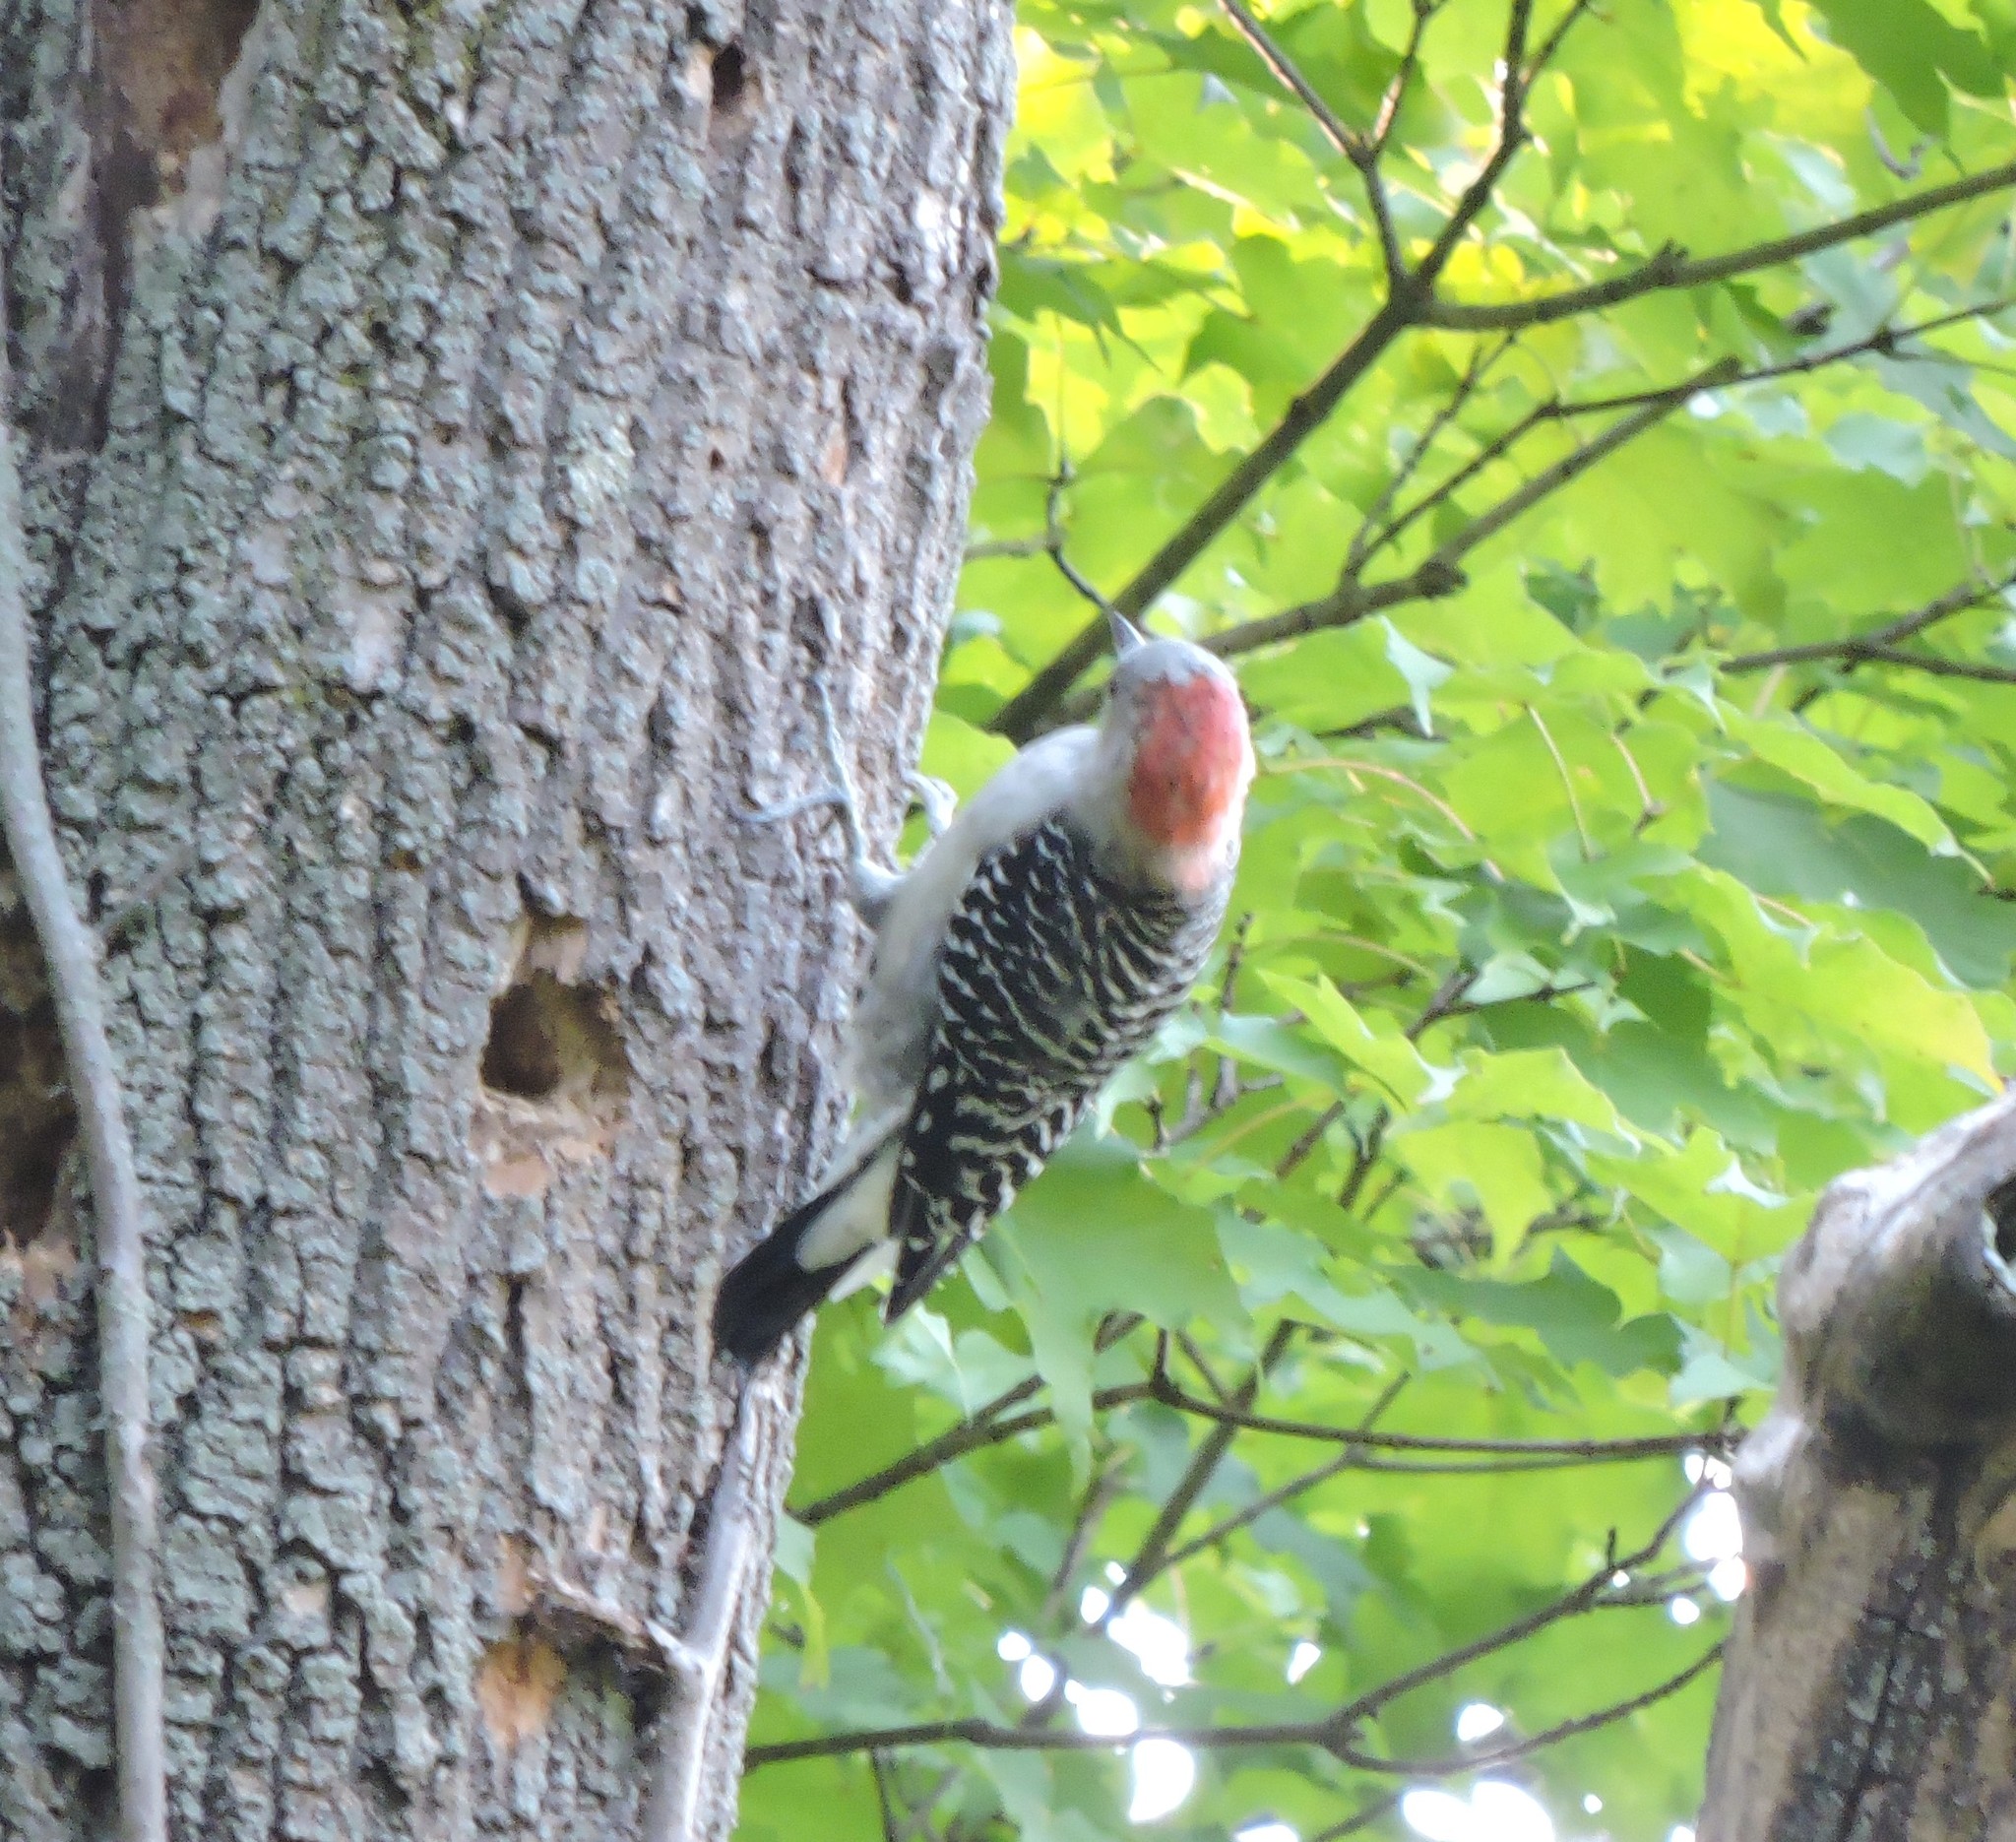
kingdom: Animalia
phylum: Chordata
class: Aves
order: Piciformes
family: Picidae
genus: Melanerpes
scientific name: Melanerpes carolinus
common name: Red-bellied woodpecker
